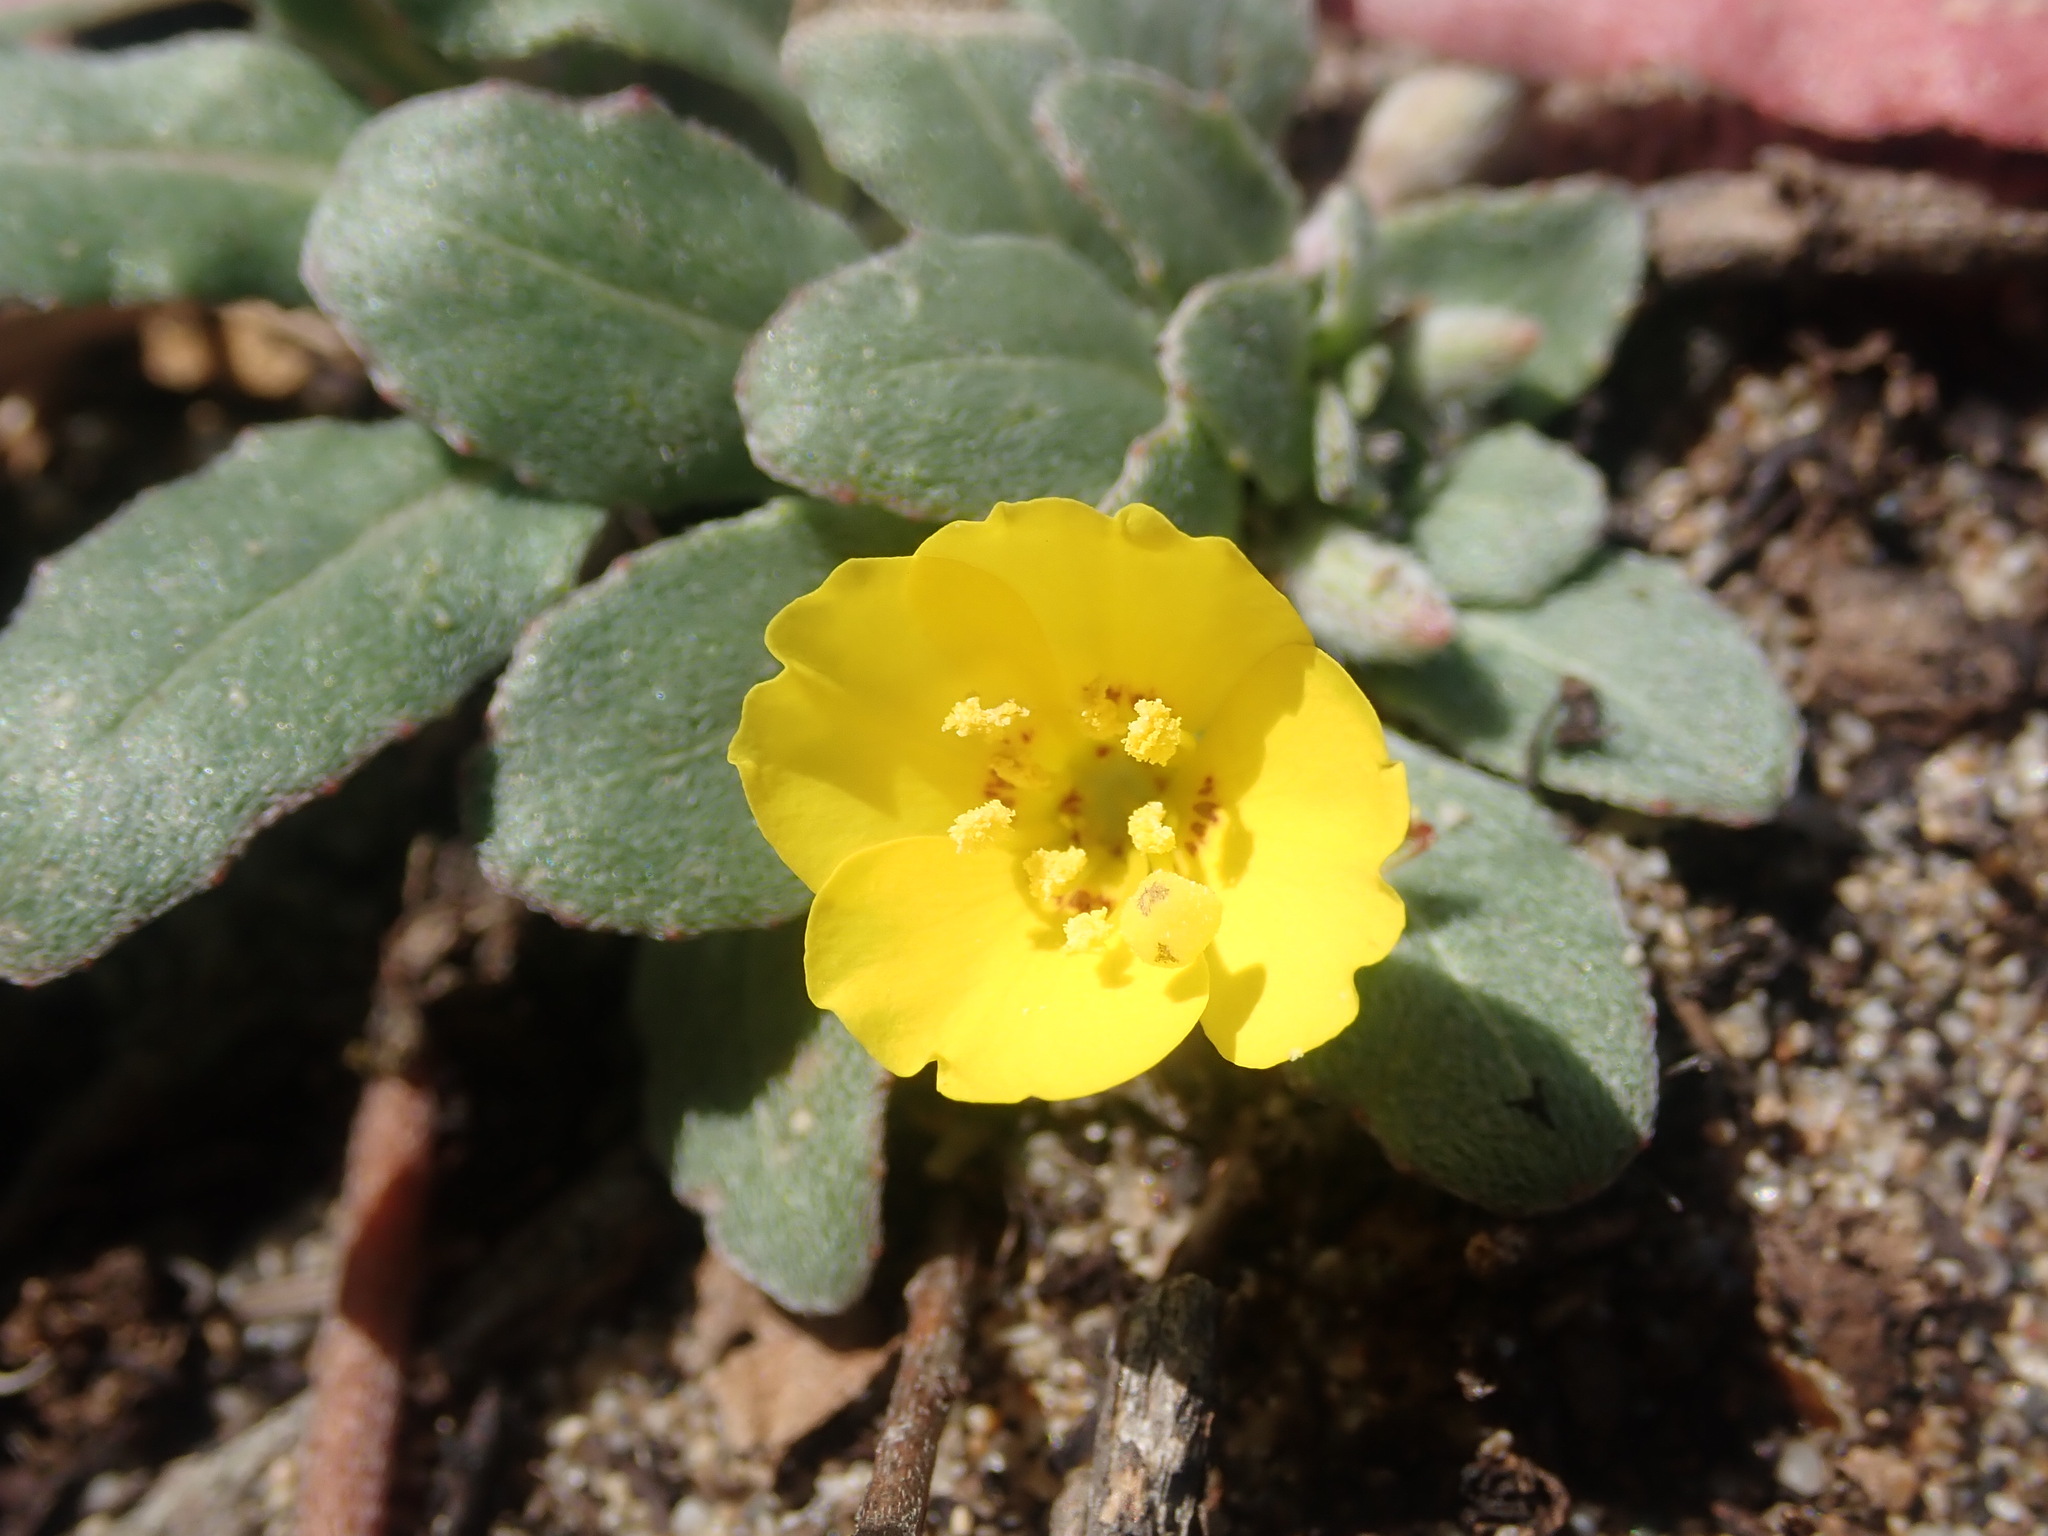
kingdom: Plantae
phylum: Tracheophyta
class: Magnoliopsida
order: Myrtales
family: Onagraceae
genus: Camissoniopsis
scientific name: Camissoniopsis cheiranthifolia
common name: Beach suncup
